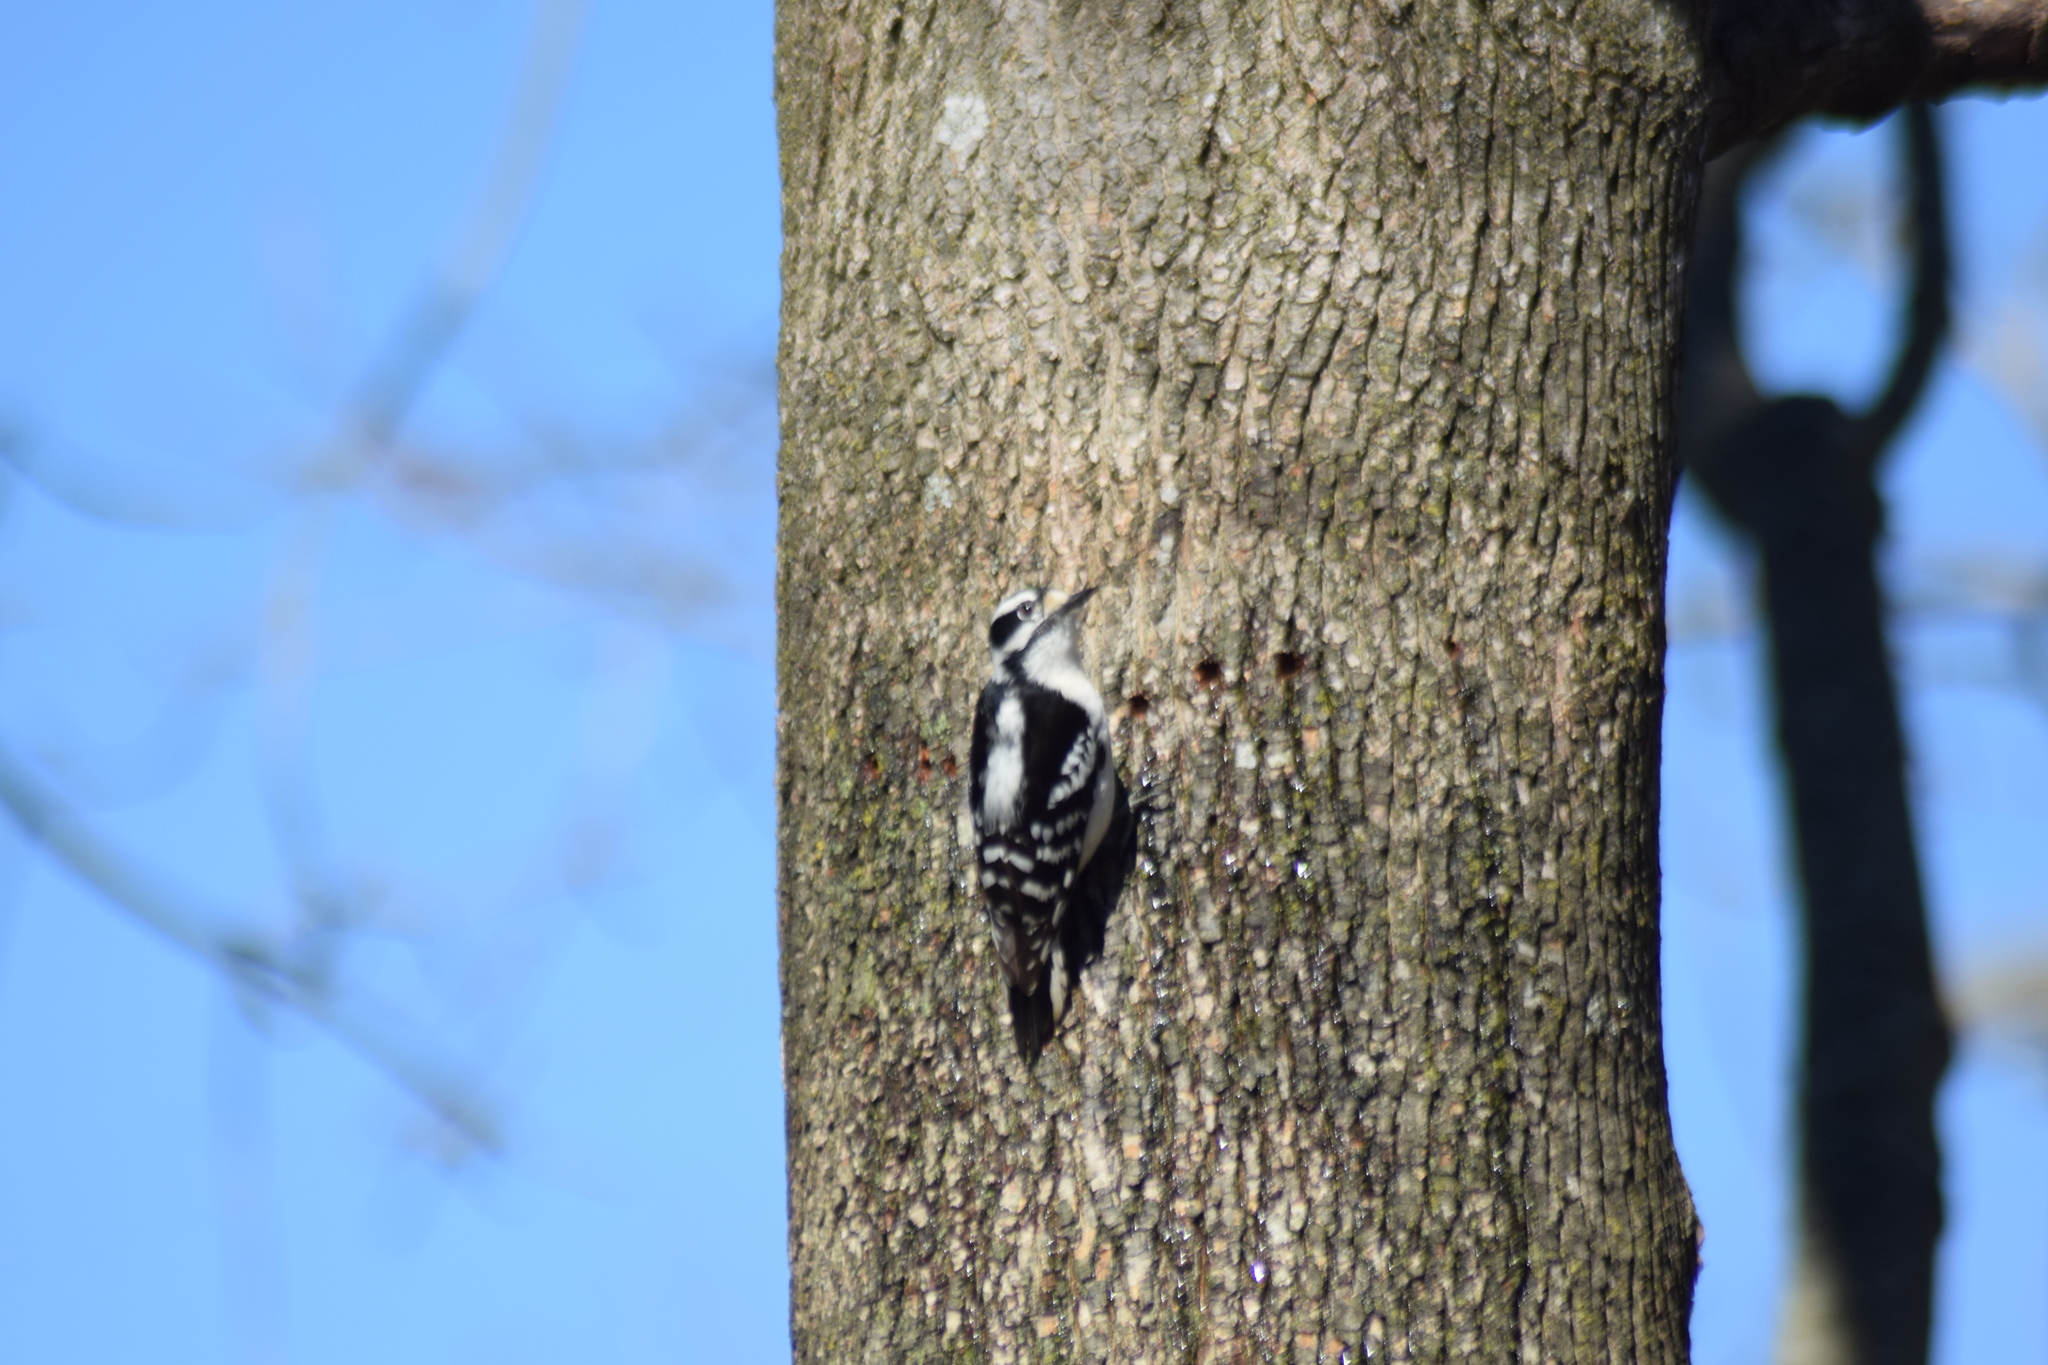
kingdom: Animalia
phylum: Chordata
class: Aves
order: Piciformes
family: Picidae
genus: Dryobates
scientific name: Dryobates pubescens
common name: Downy woodpecker
